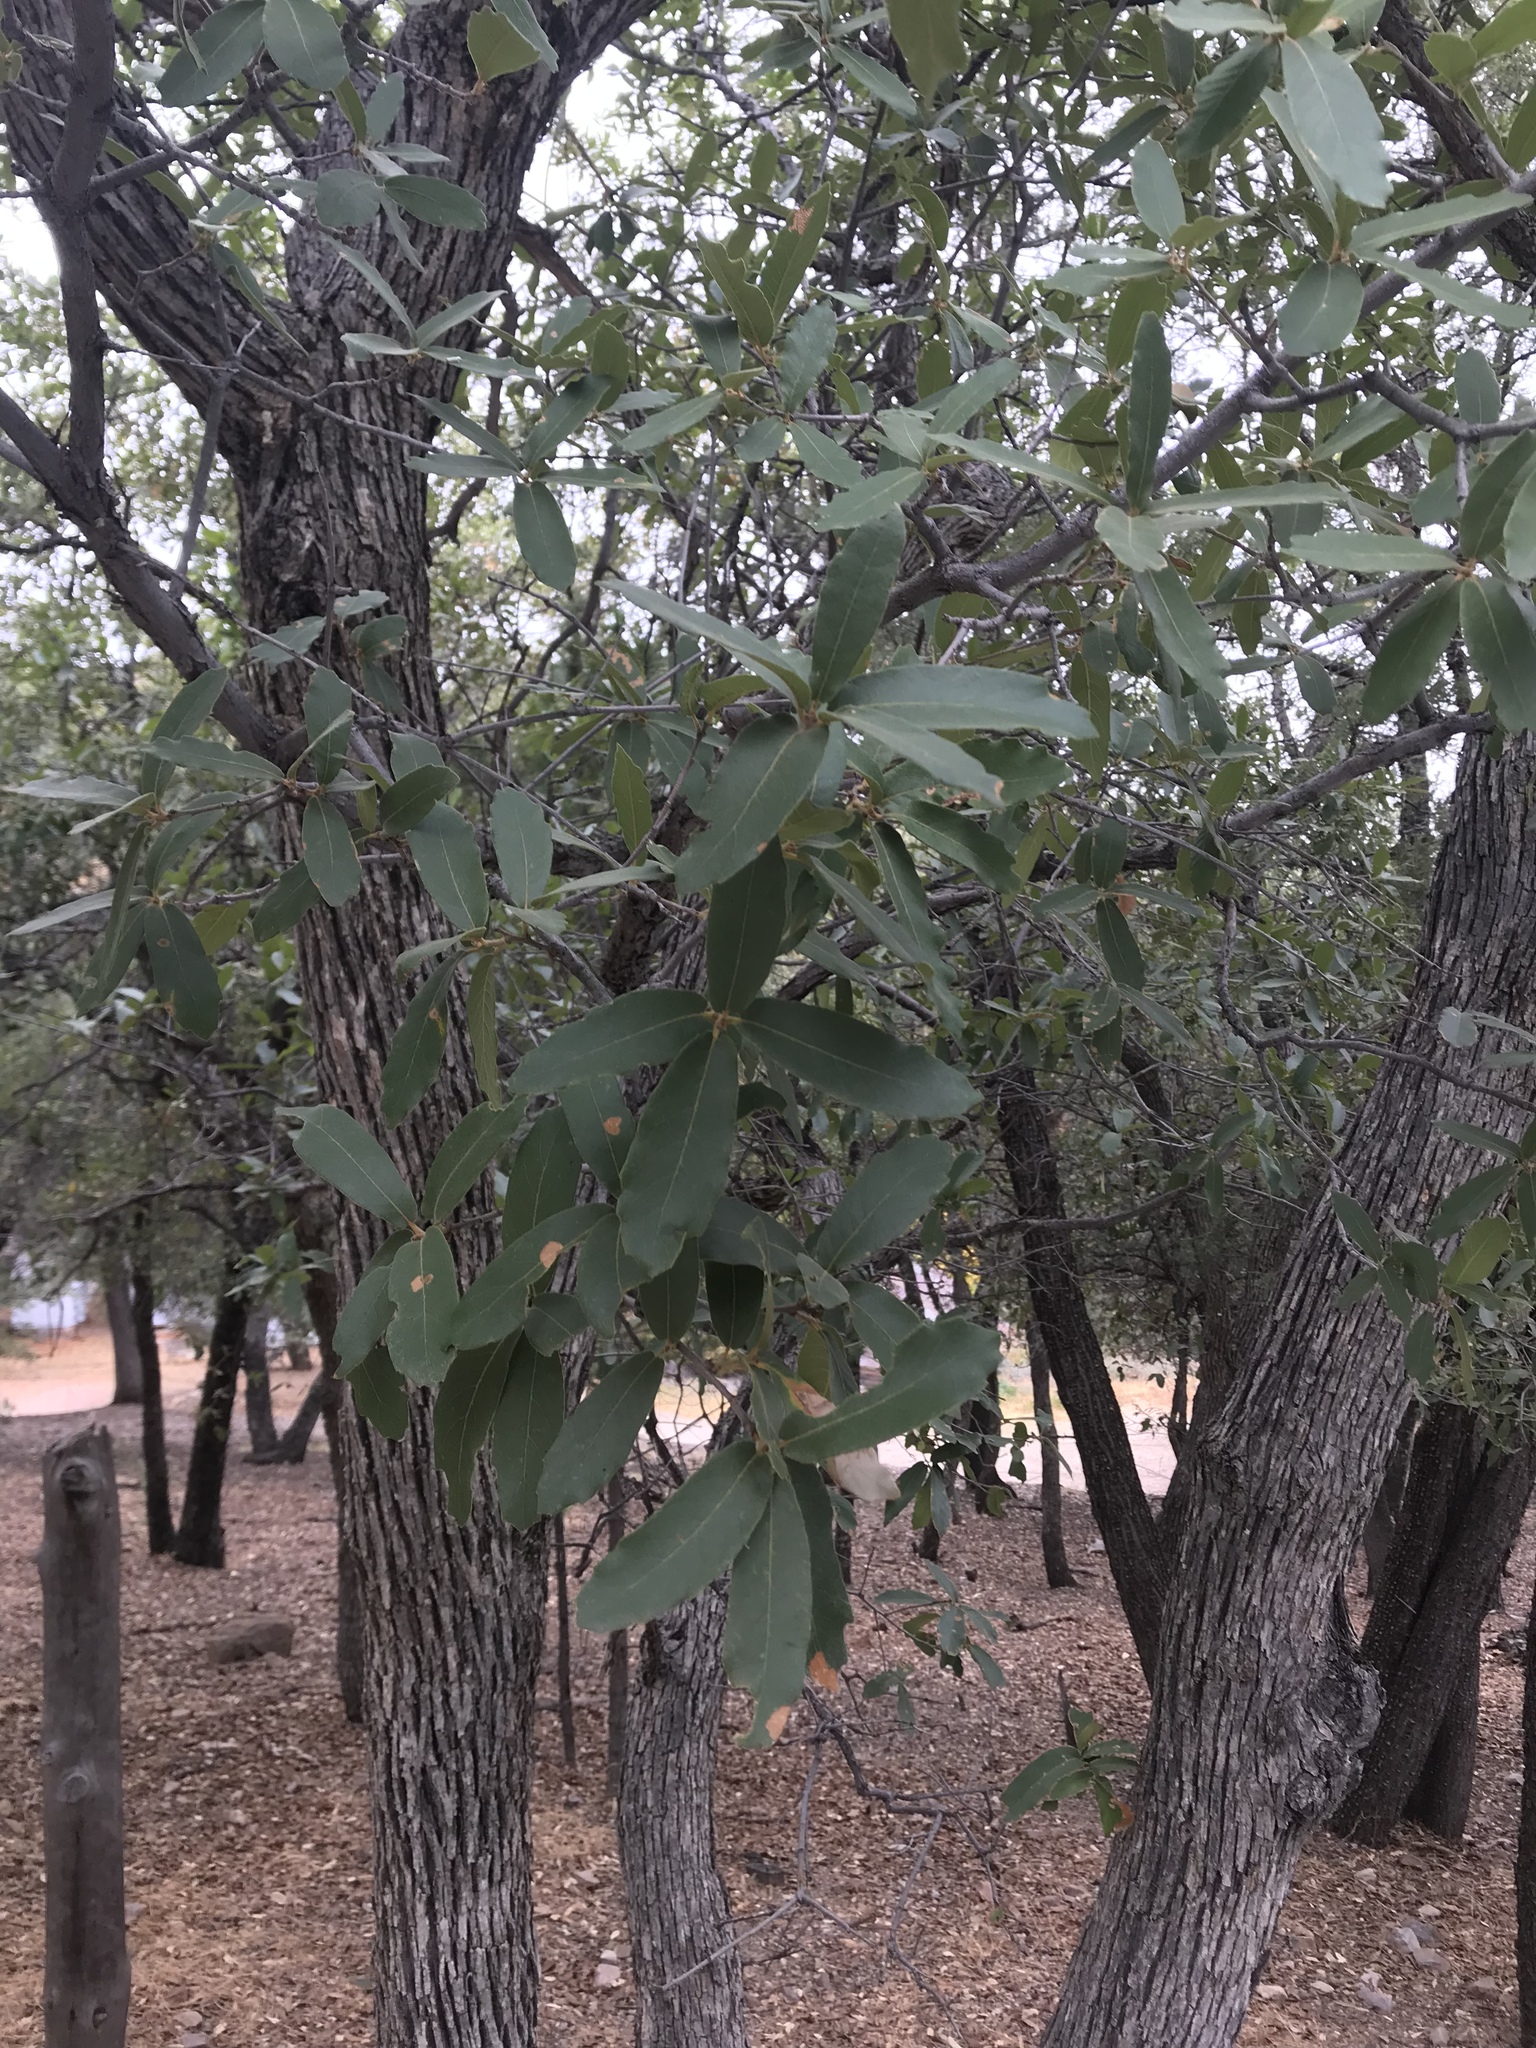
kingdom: Plantae
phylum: Tracheophyta
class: Magnoliopsida
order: Fagales
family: Fagaceae
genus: Quercus
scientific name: Quercus arizonica
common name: Arizona white oak
